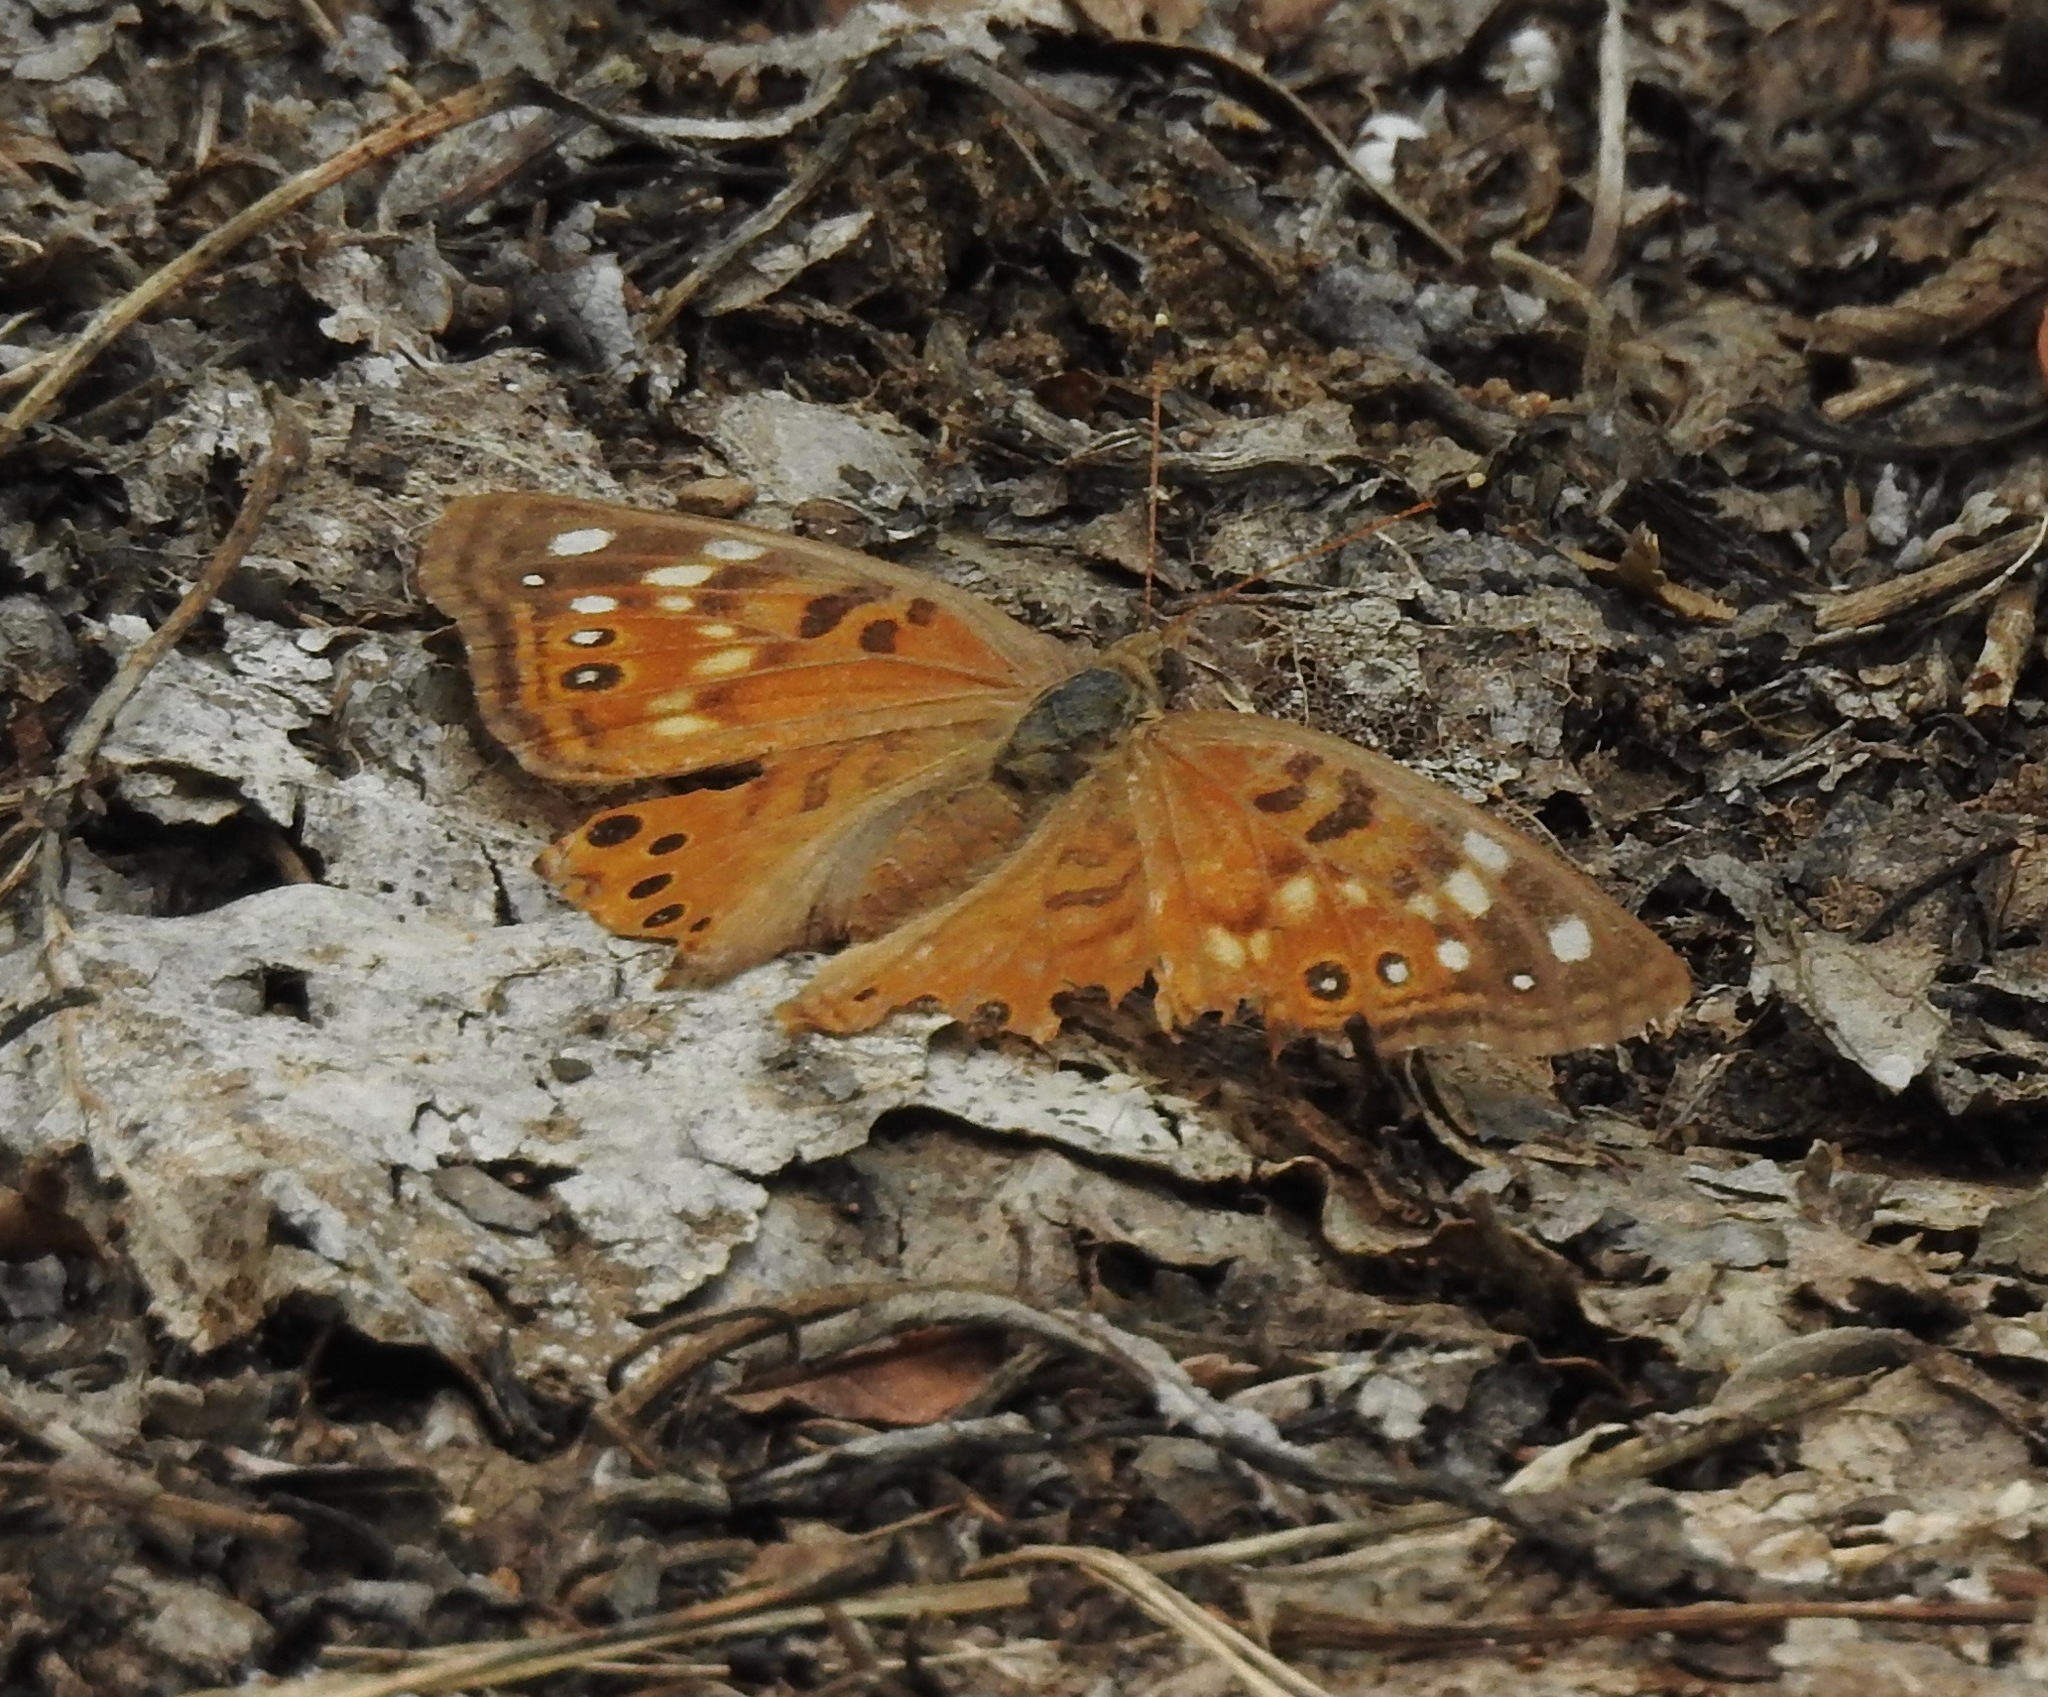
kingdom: Animalia
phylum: Arthropoda
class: Insecta
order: Lepidoptera
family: Nymphalidae
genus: Asterocampa
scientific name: Asterocampa celtis
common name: Hackberry emperor
